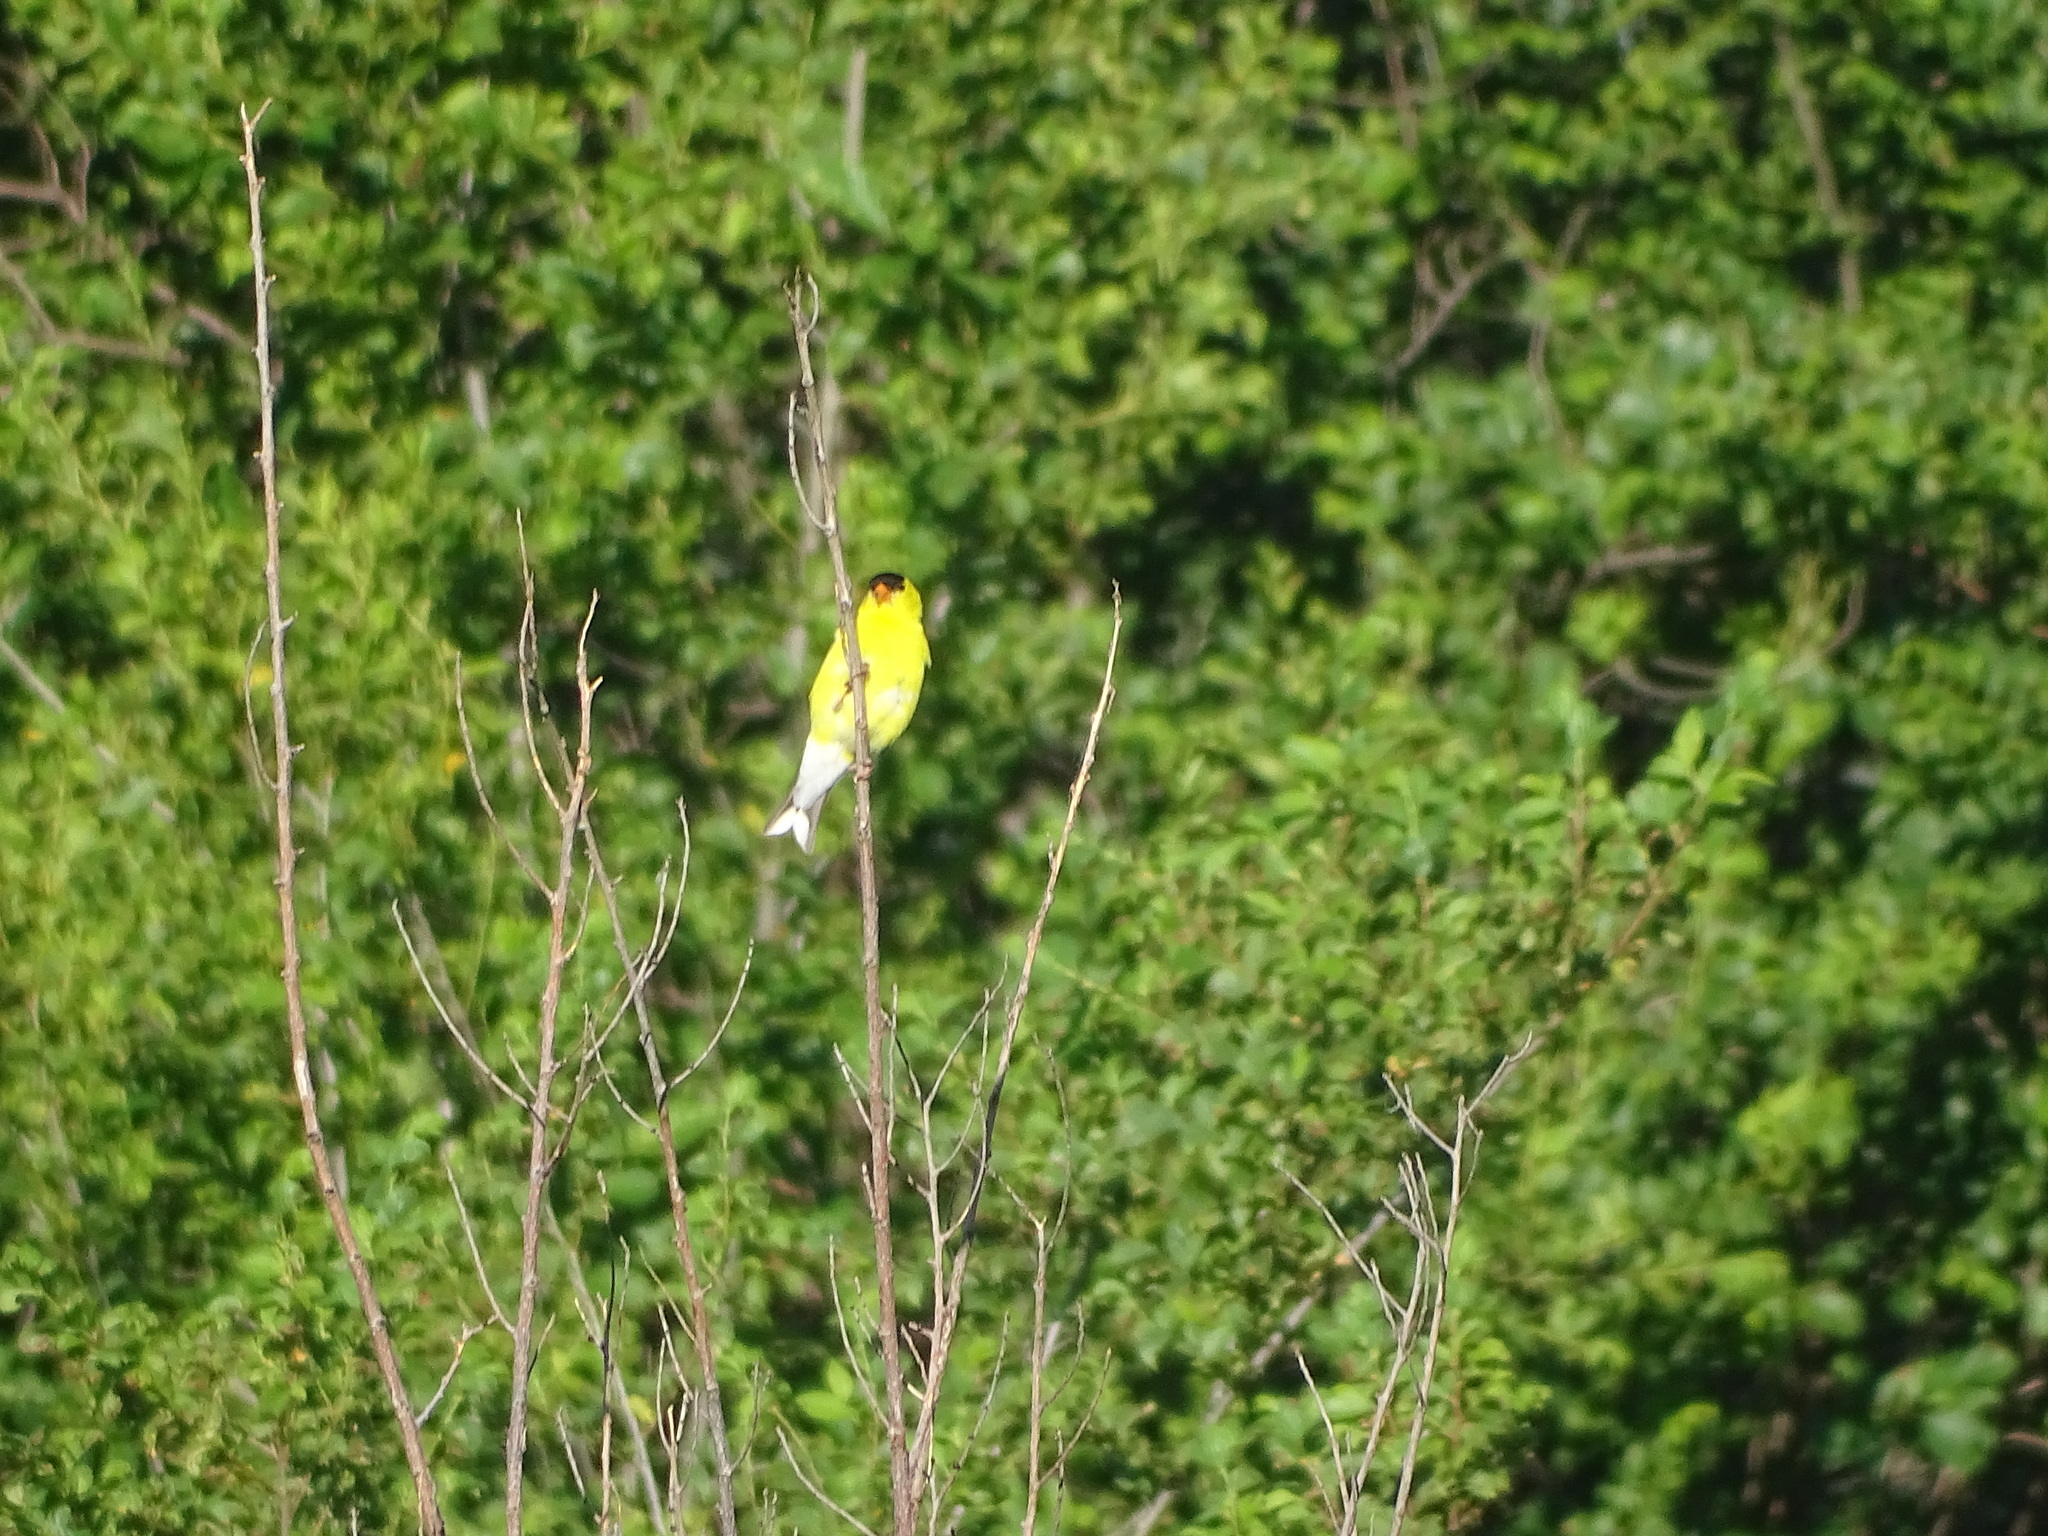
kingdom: Animalia
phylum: Chordata
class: Aves
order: Passeriformes
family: Fringillidae
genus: Spinus
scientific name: Spinus tristis
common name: American goldfinch
